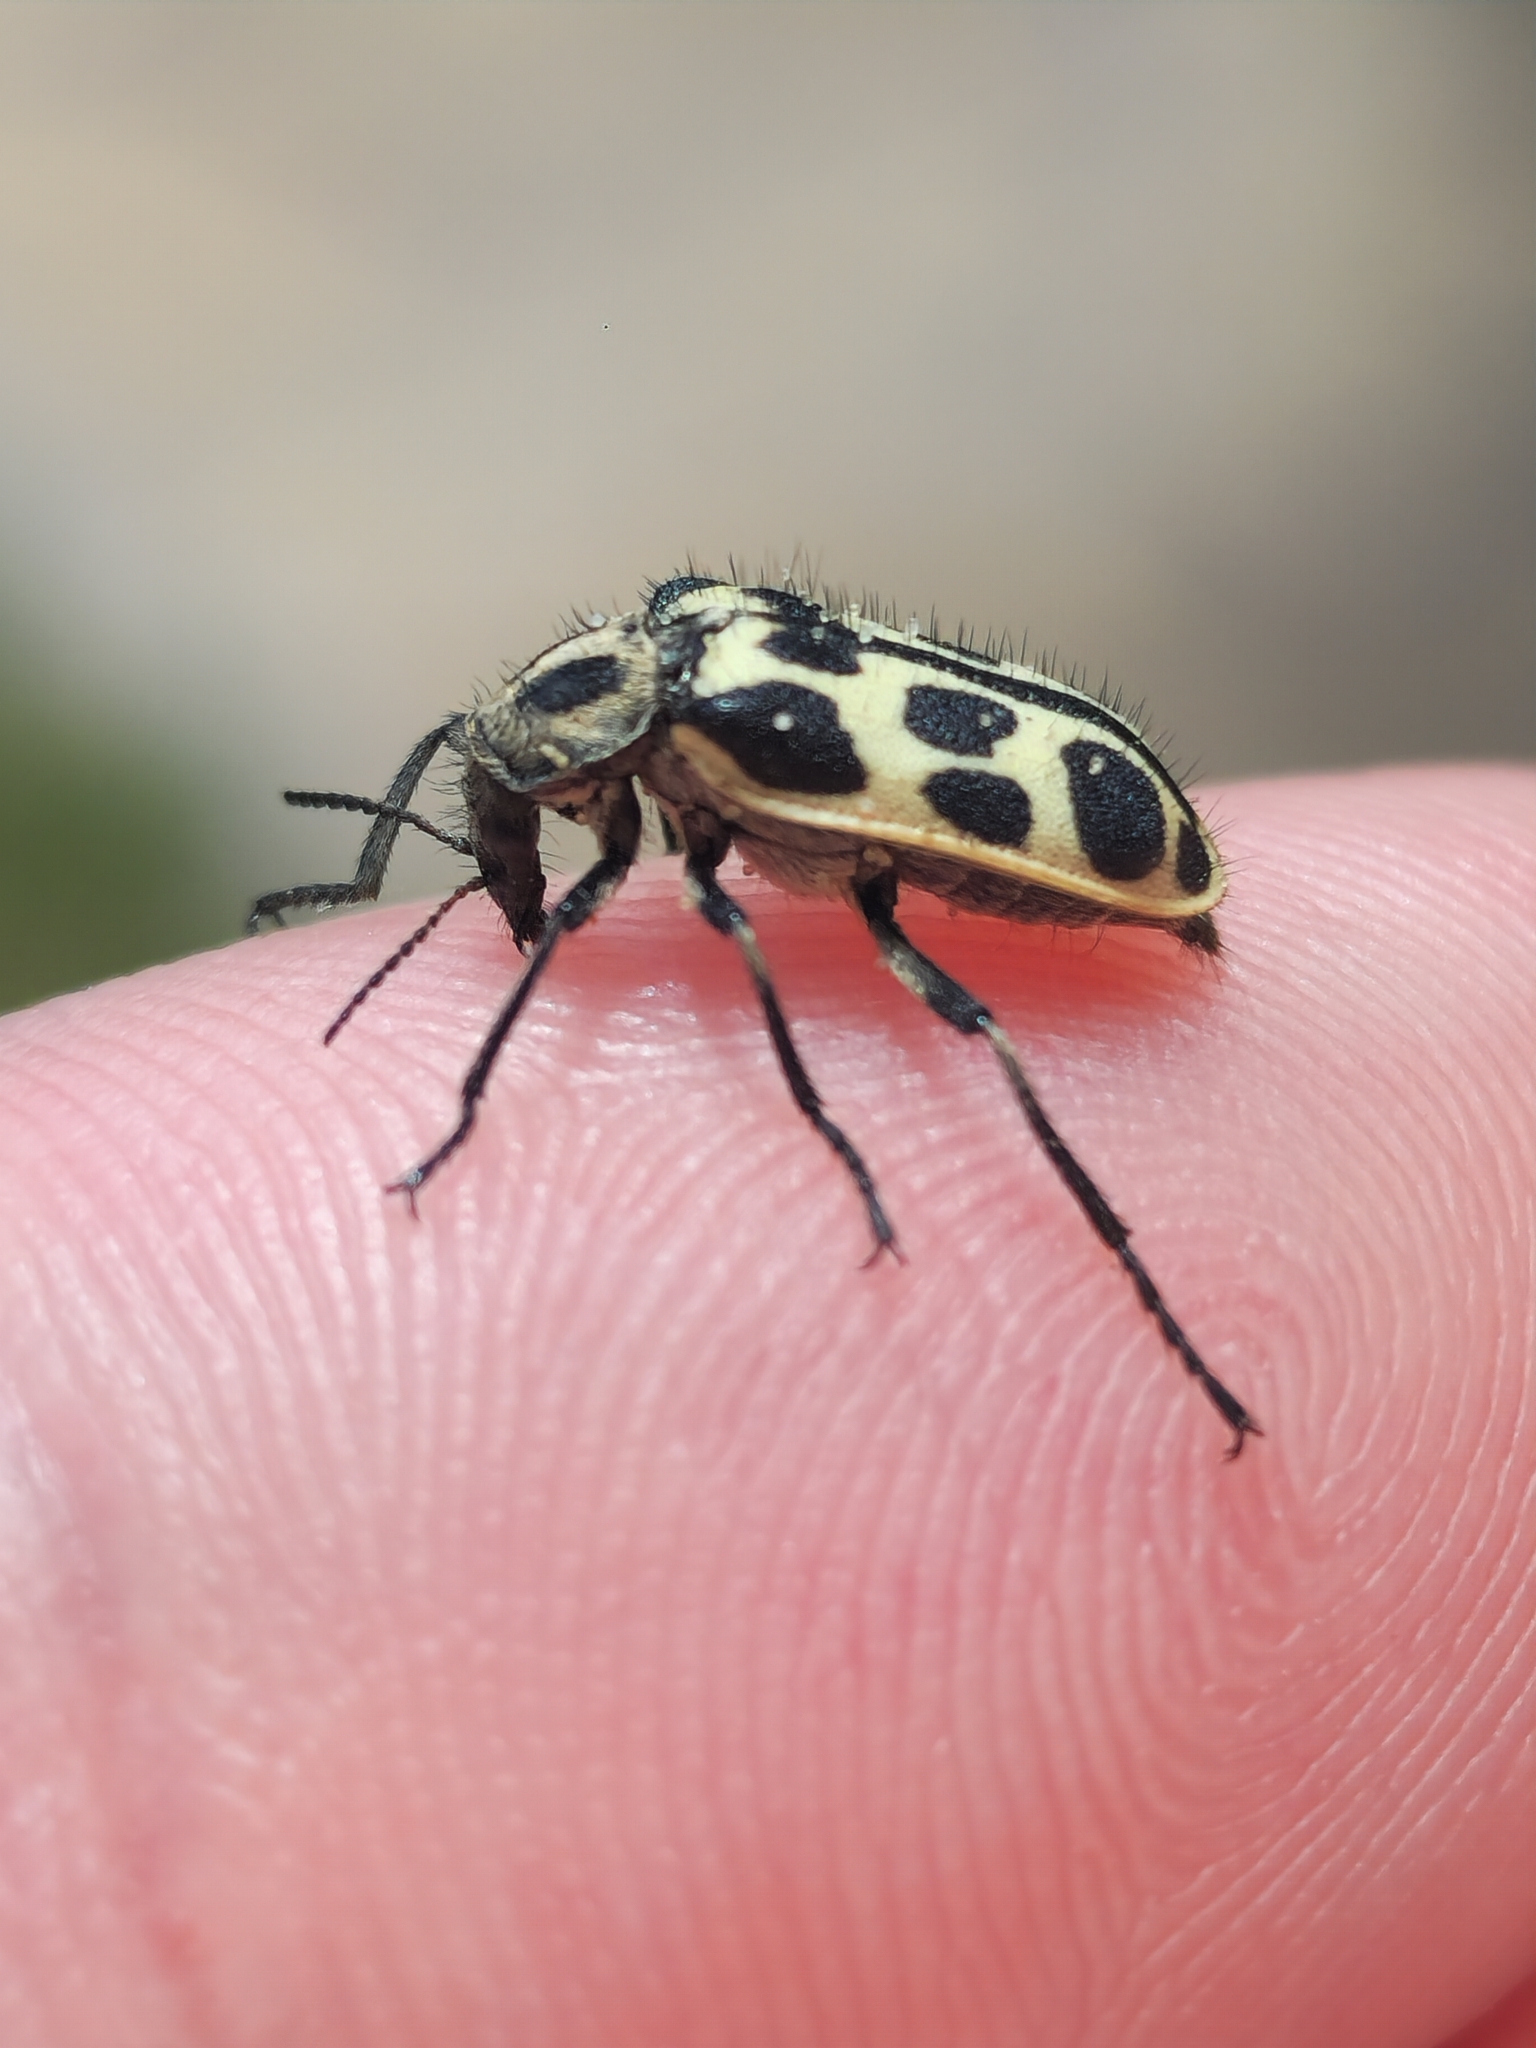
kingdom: Animalia
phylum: Arthropoda
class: Insecta
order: Coleoptera
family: Melyridae
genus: Astylus
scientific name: Astylus atromaculatus
